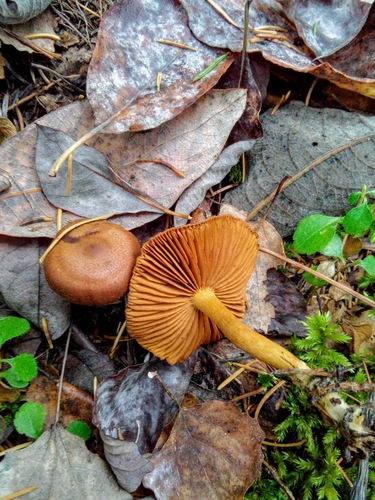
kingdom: Fungi
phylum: Basidiomycota
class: Agaricomycetes
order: Agaricales
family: Cortinariaceae
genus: Cortinarius
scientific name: Cortinarius
